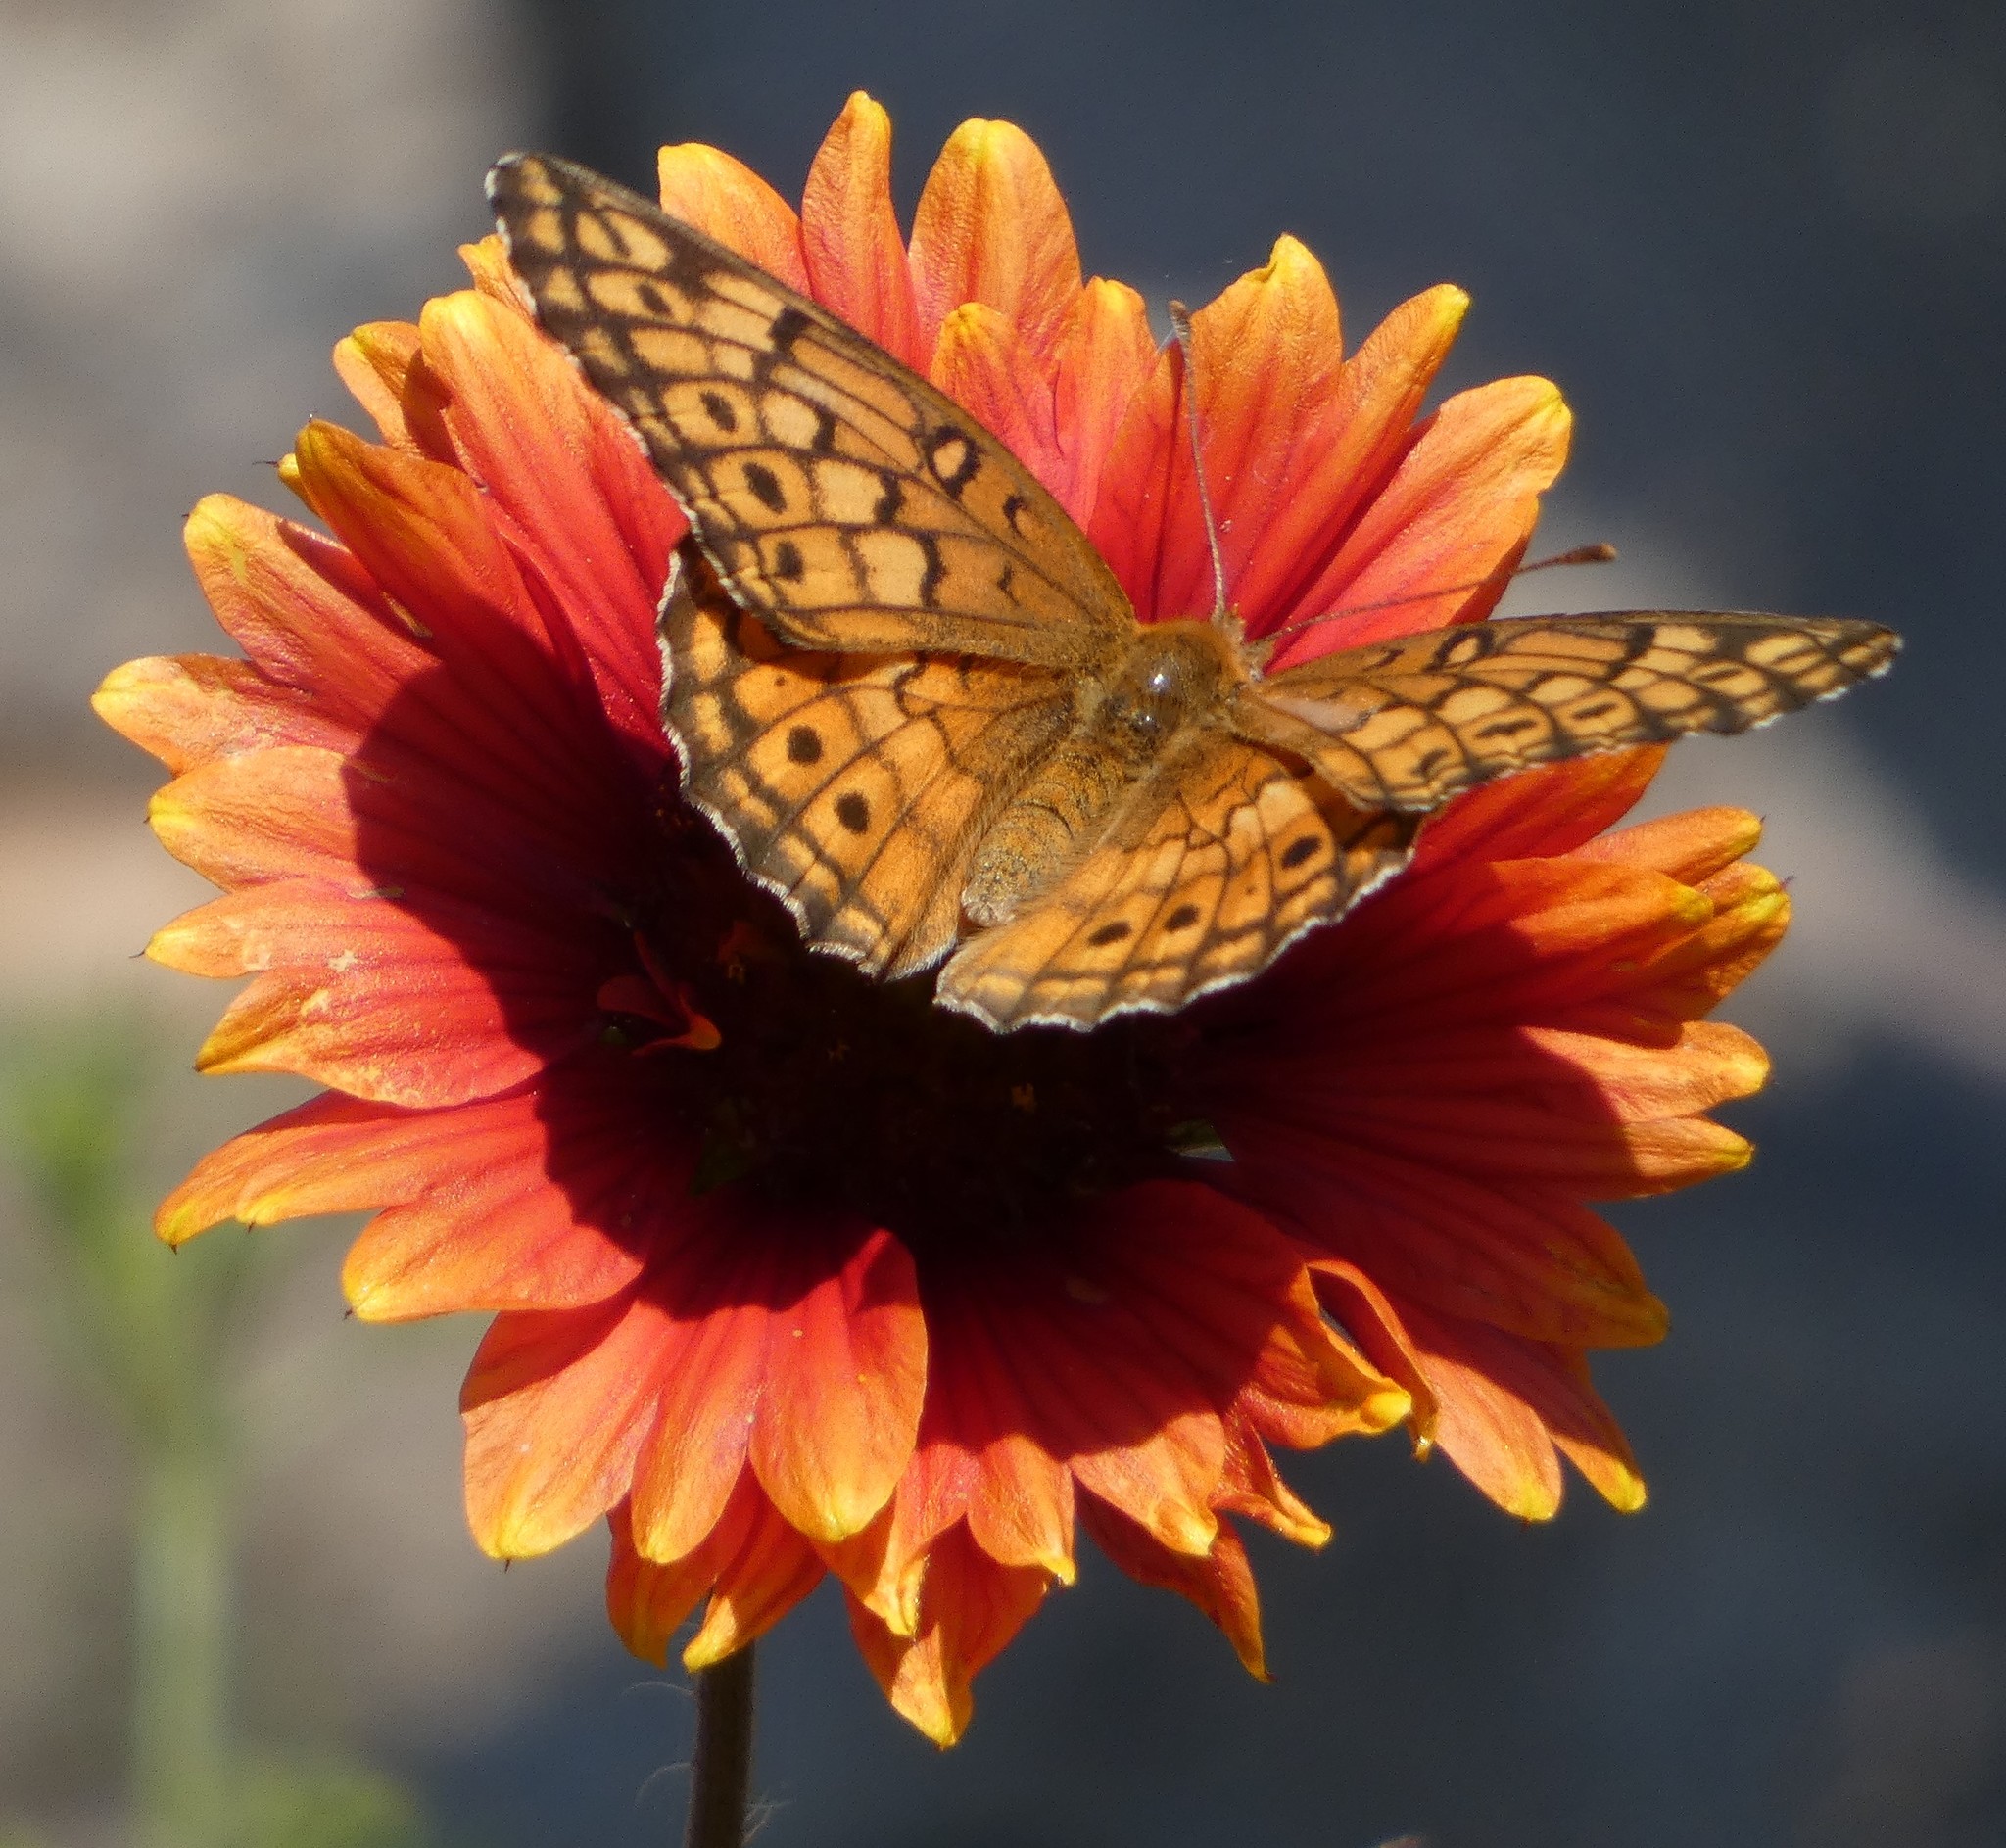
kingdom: Animalia
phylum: Arthropoda
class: Insecta
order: Lepidoptera
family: Nymphalidae
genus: Euptoieta
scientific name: Euptoieta claudia
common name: Variegated fritillary
